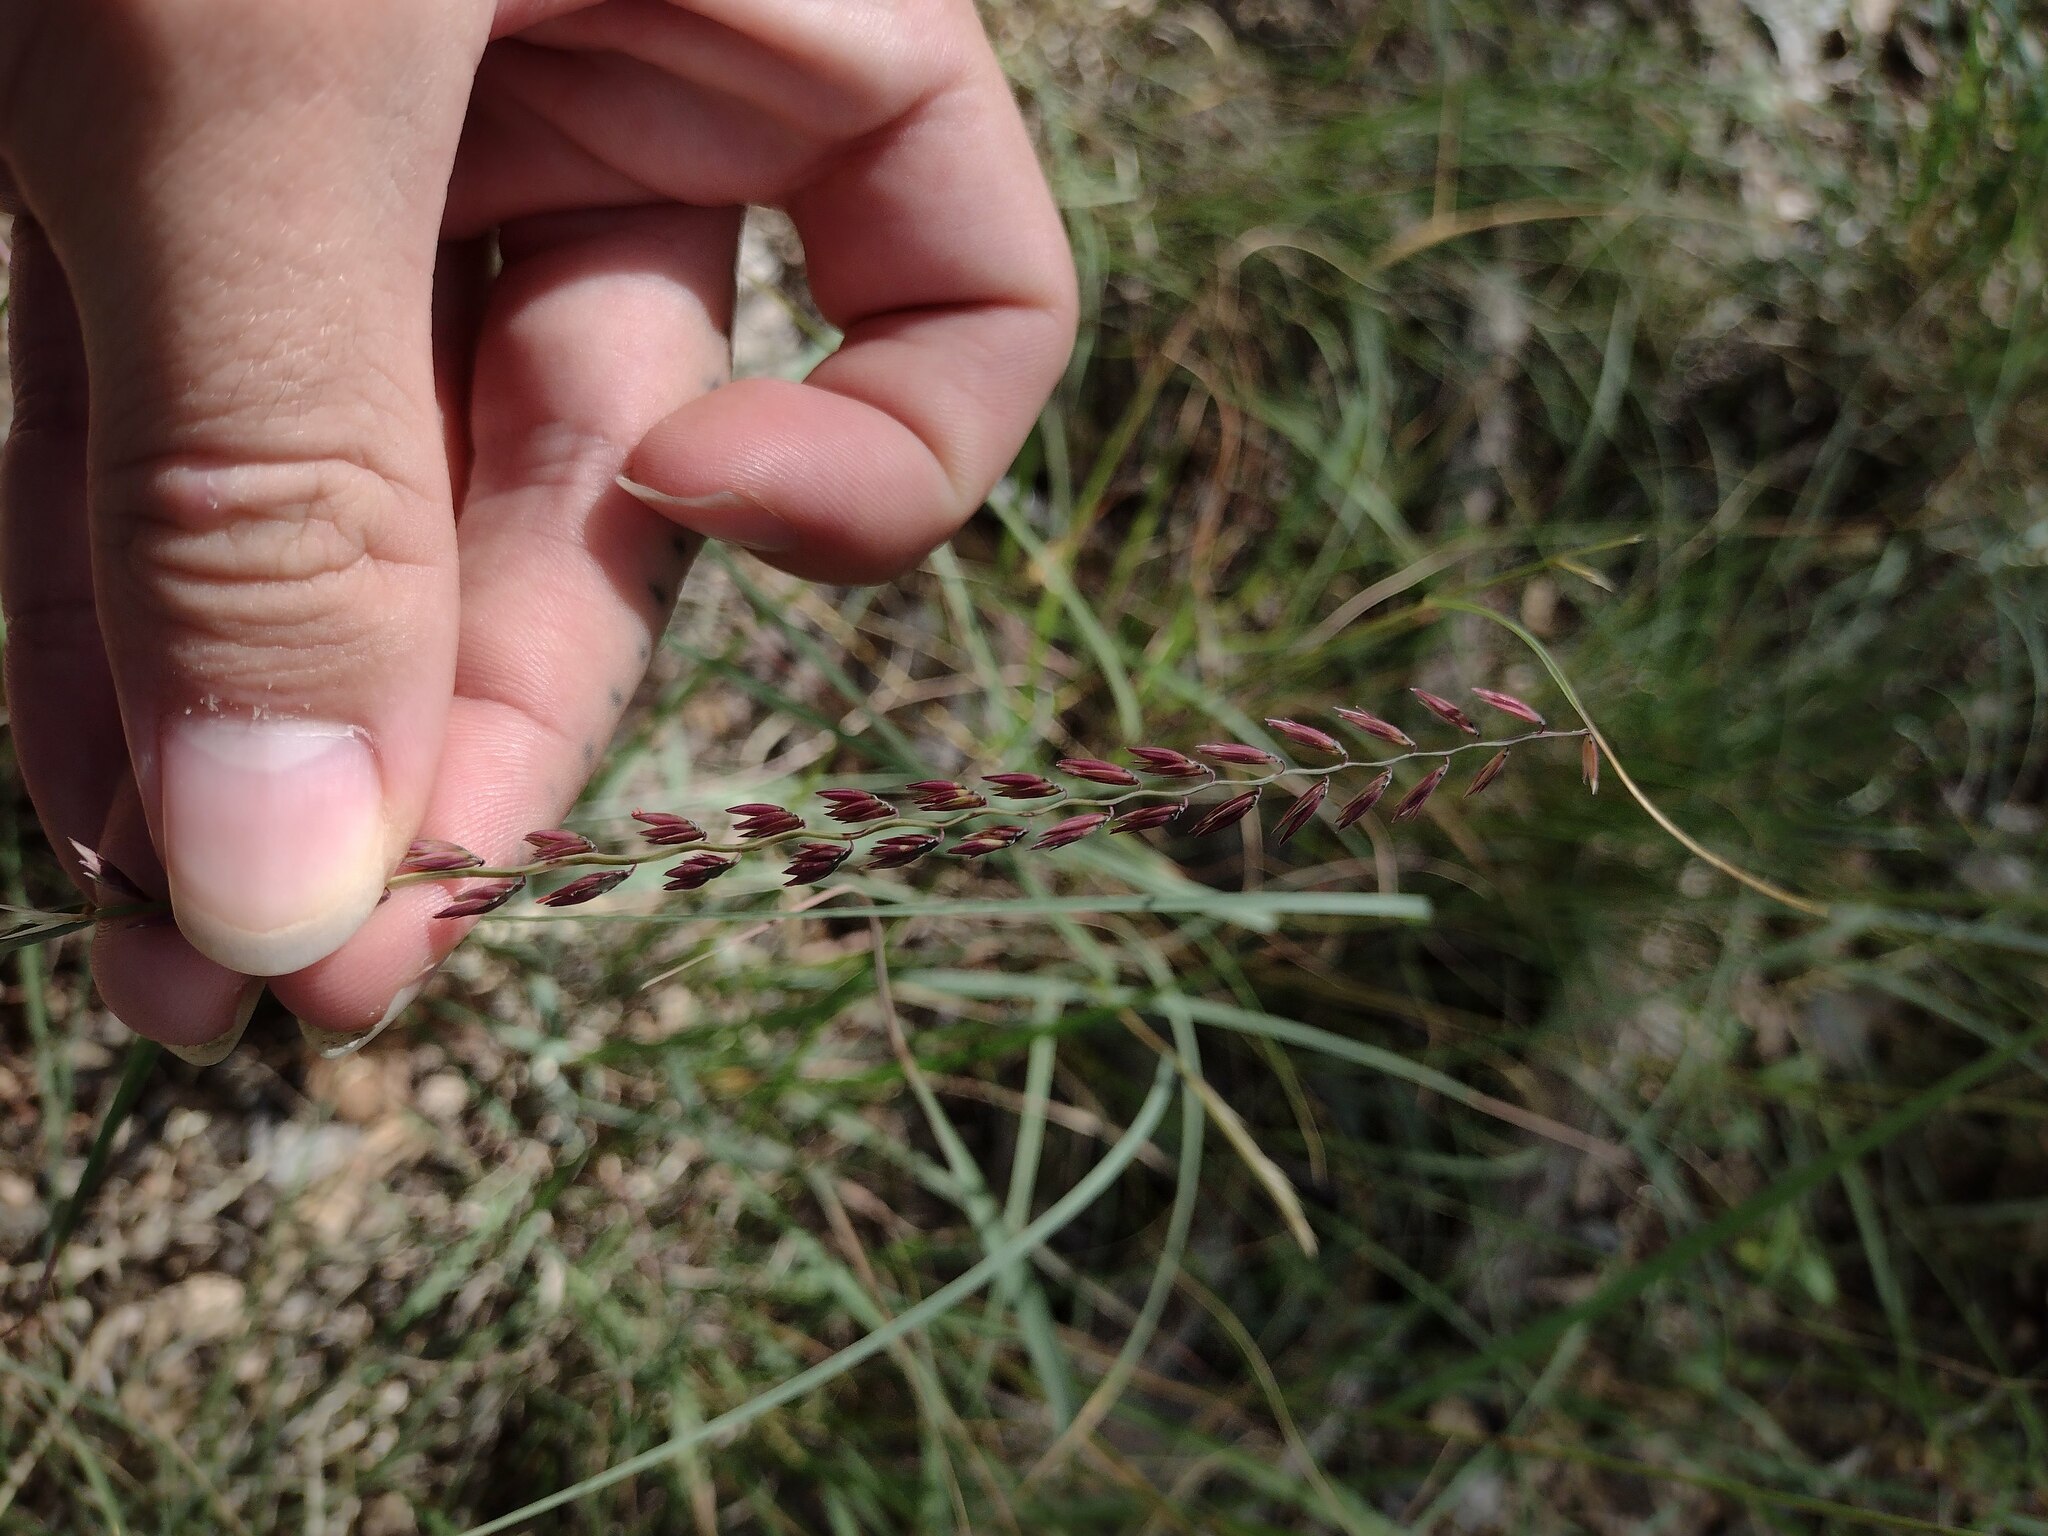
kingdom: Plantae
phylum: Tracheophyta
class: Liliopsida
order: Poales
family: Poaceae
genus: Bouteloua
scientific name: Bouteloua curtipendula
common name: Side-oats grama
